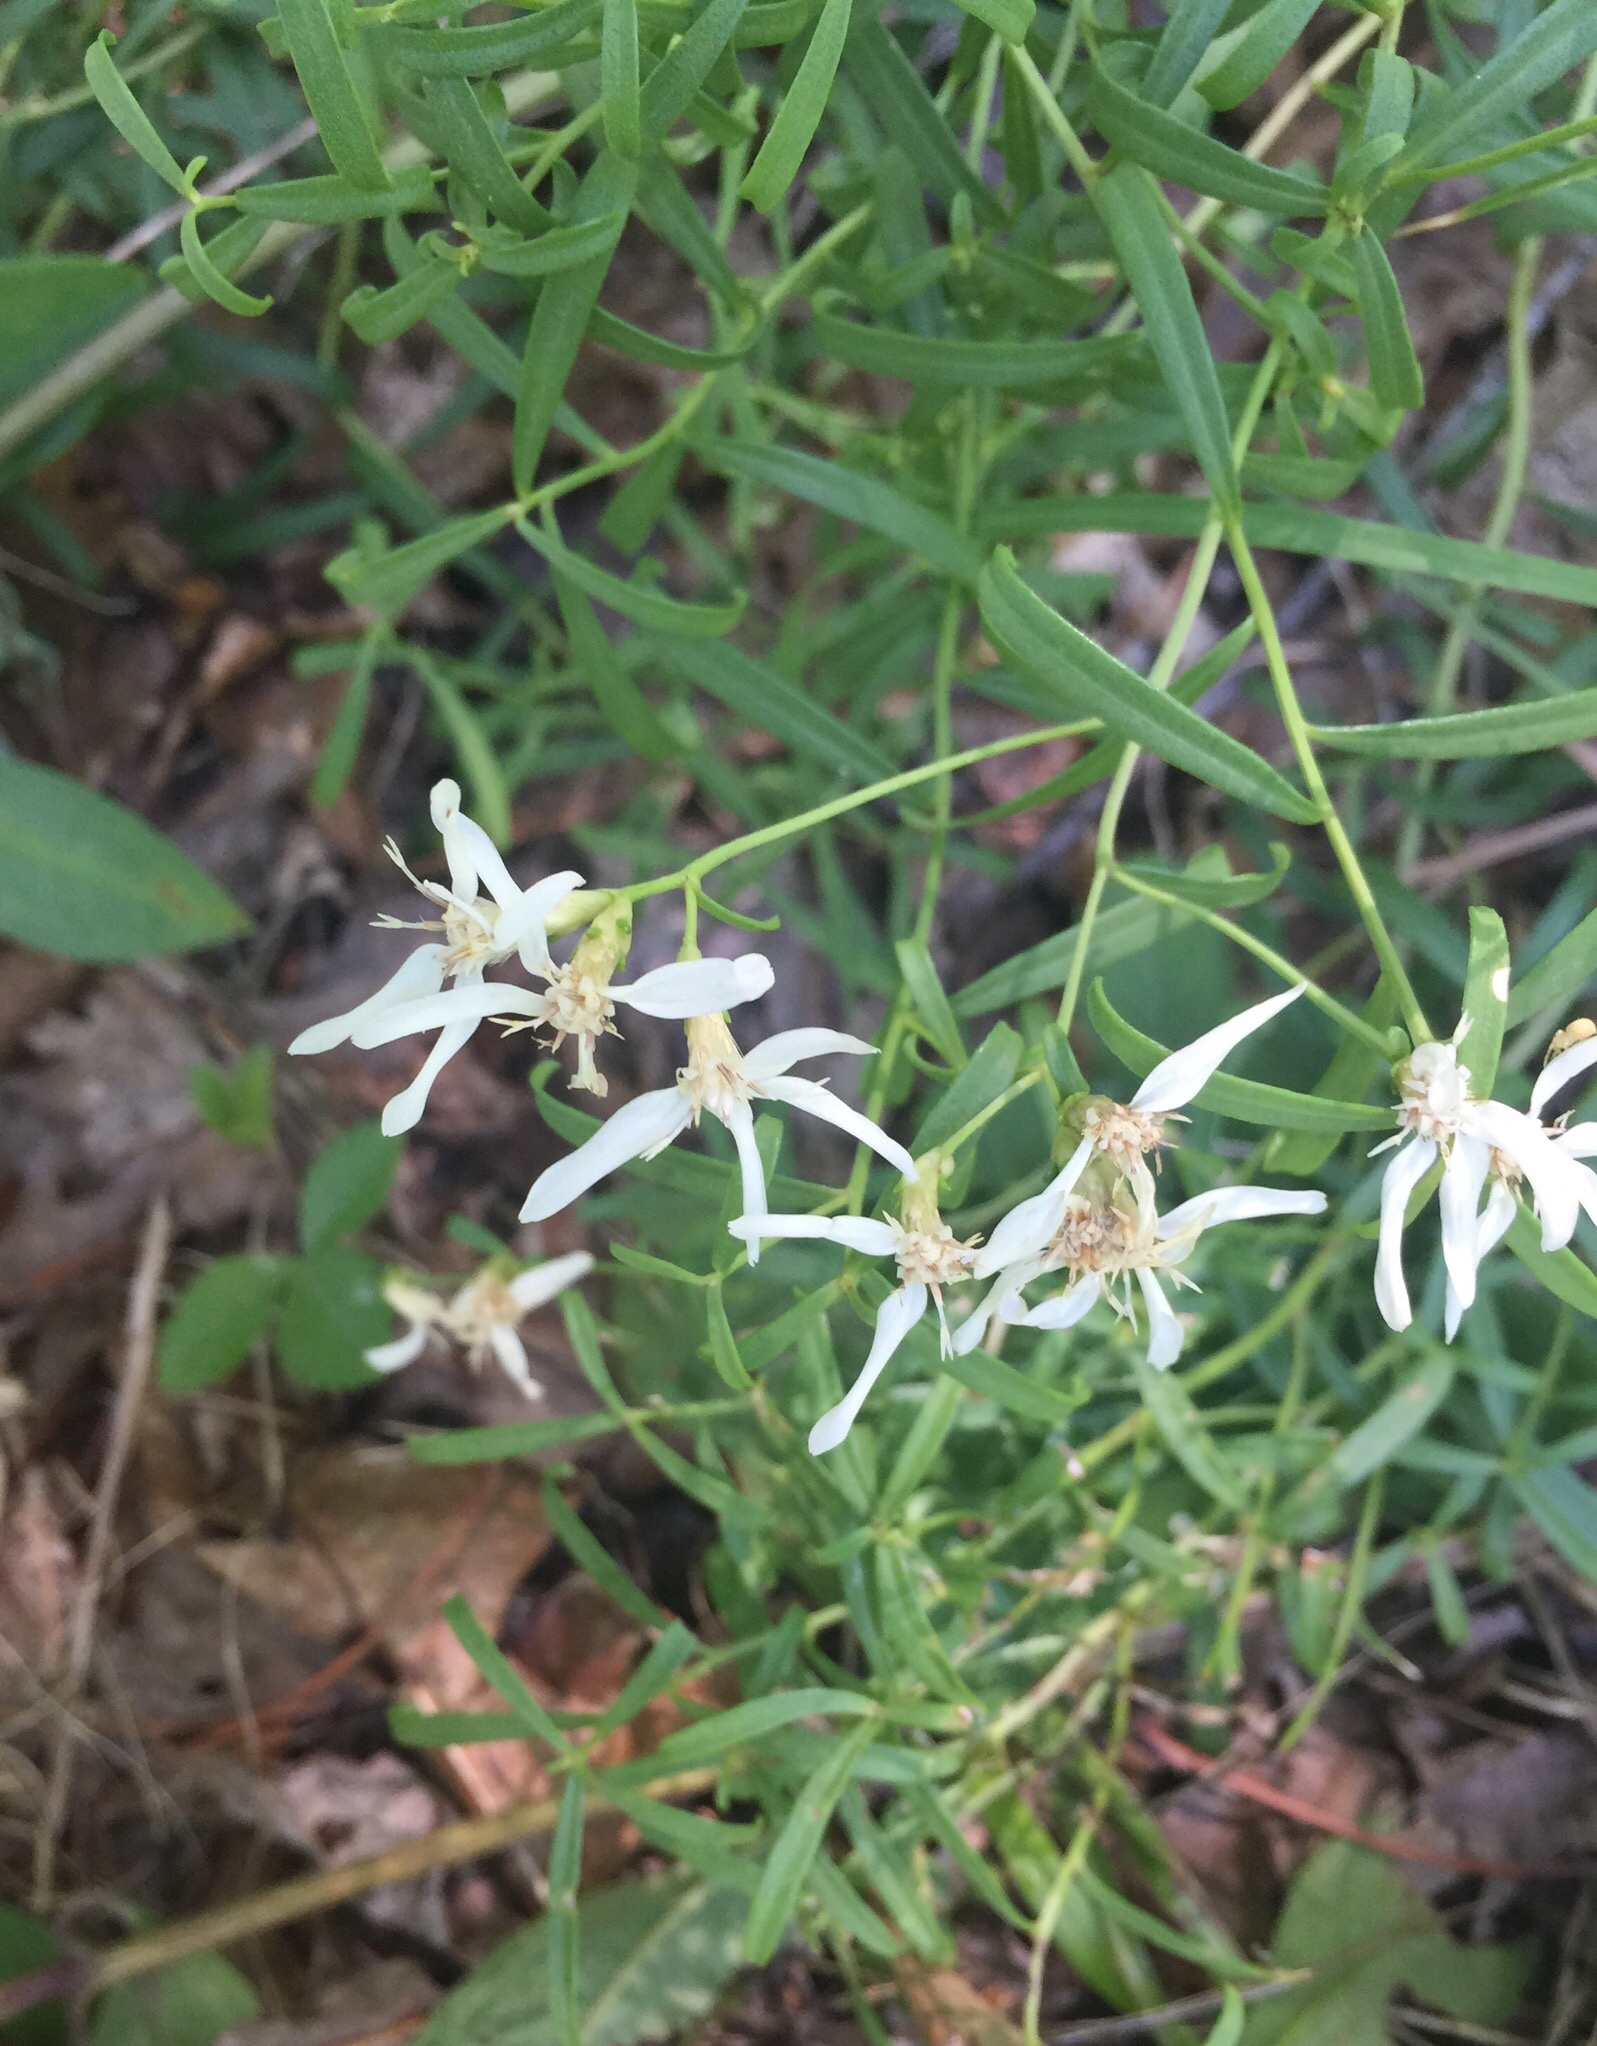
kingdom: Plantae
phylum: Tracheophyta
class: Magnoliopsida
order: Asterales
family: Asteraceae
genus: Sericocarpus
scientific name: Sericocarpus linifolius
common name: Narrow-leaf aster
